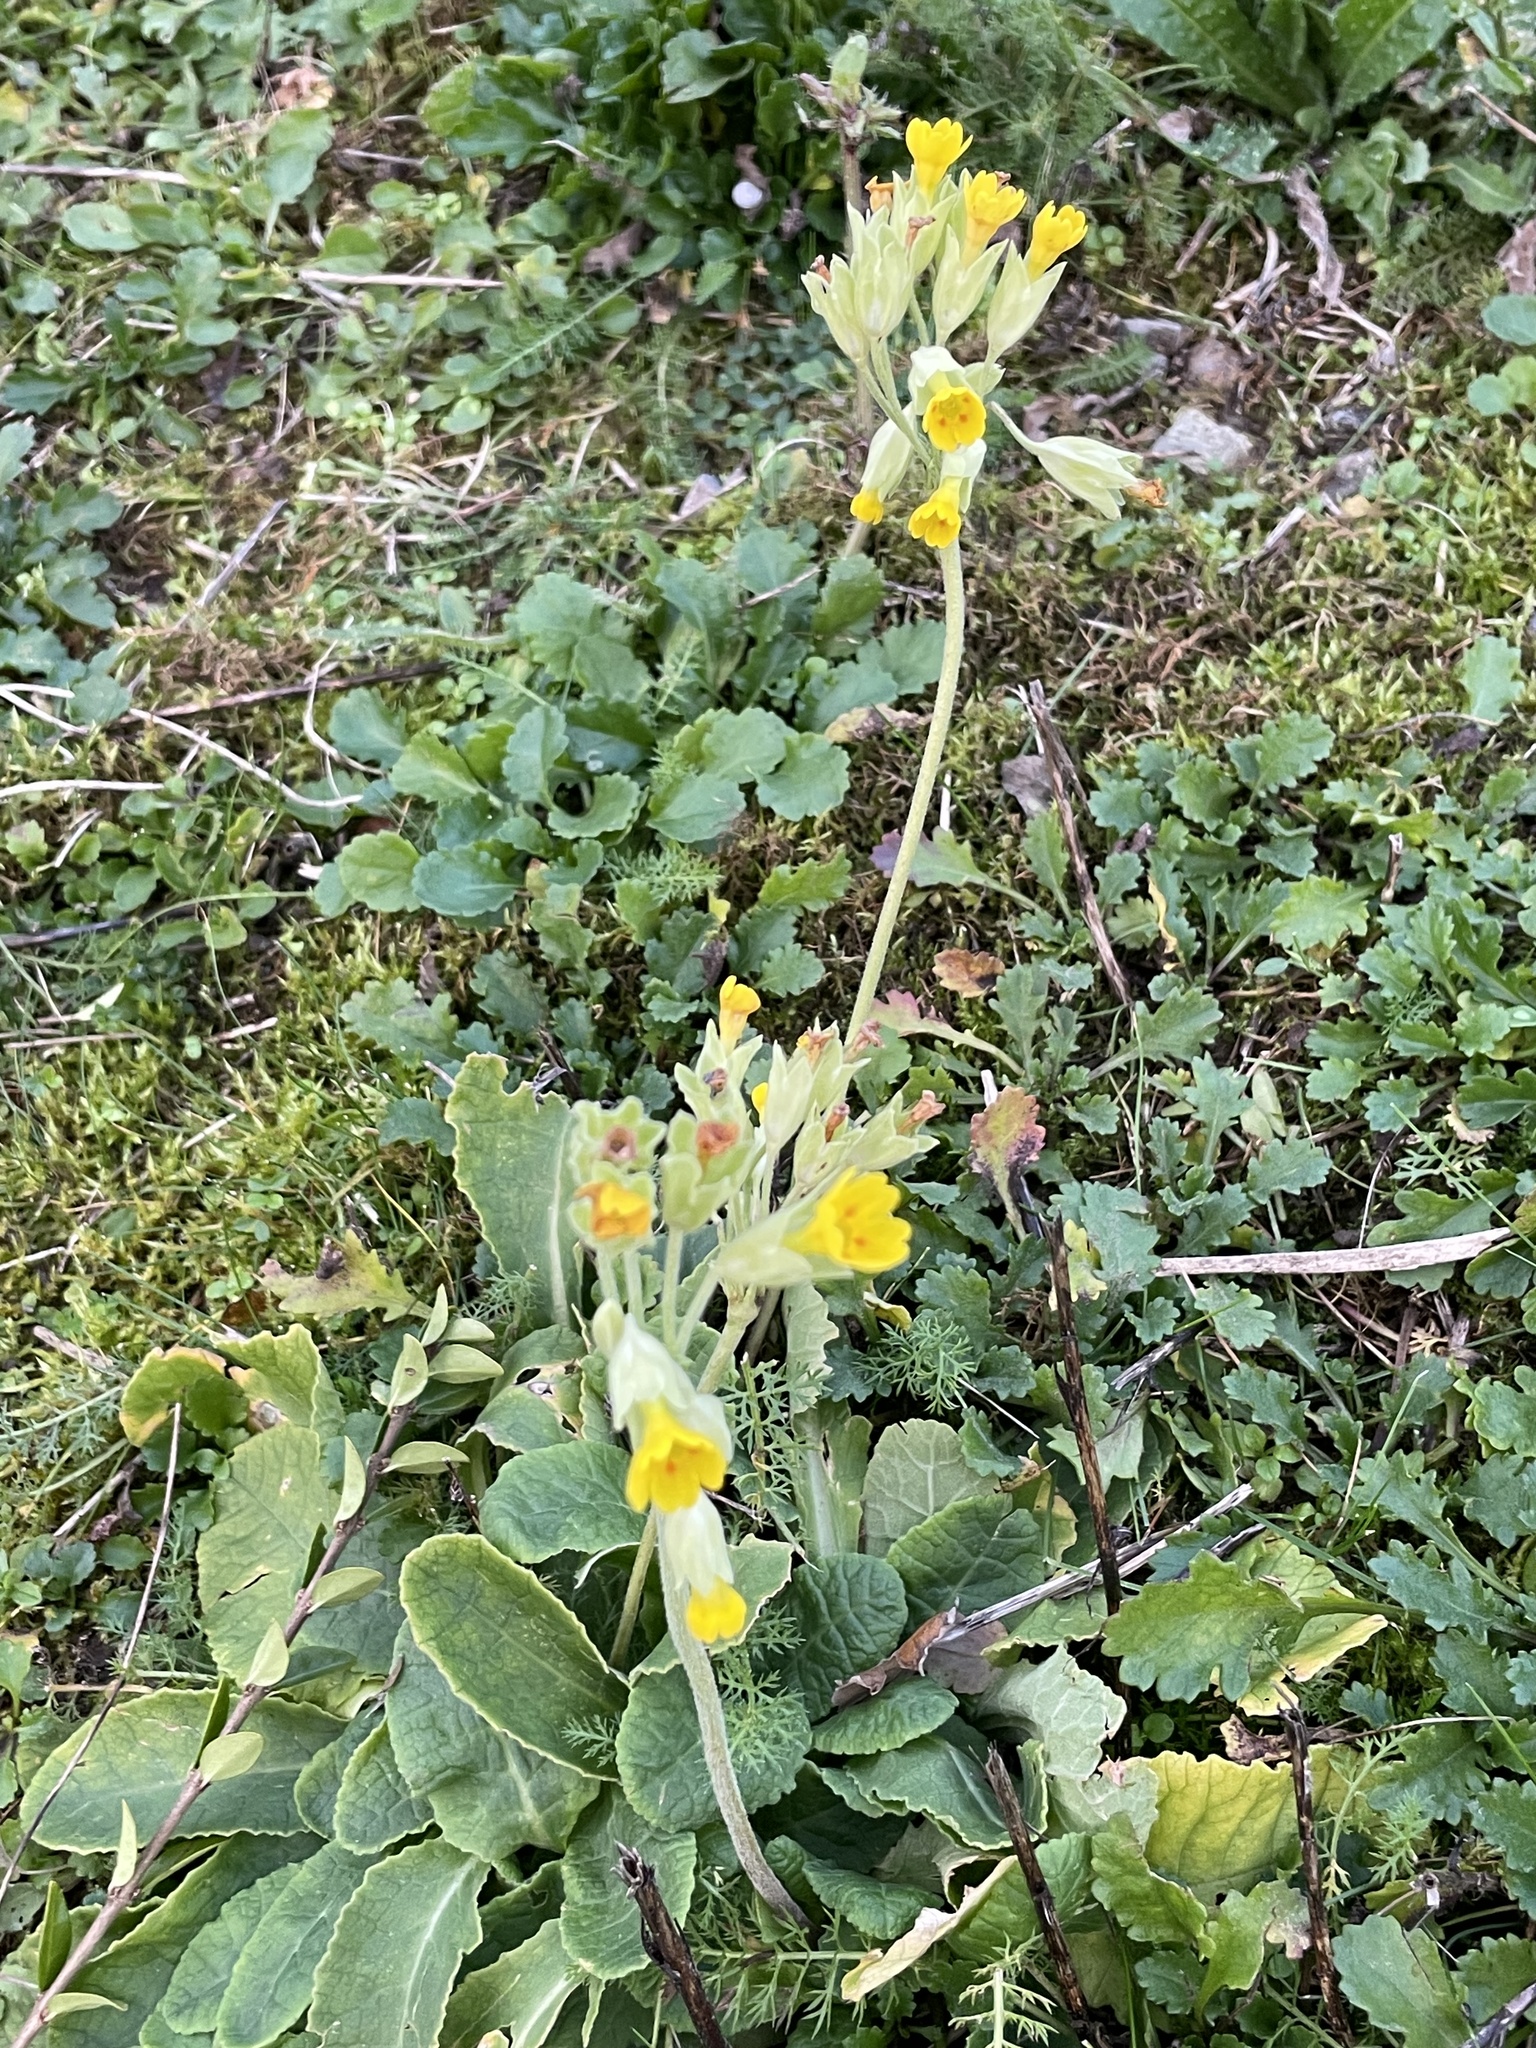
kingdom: Plantae
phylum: Tracheophyta
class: Magnoliopsida
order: Ericales
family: Primulaceae
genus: Primula
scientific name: Primula veris
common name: Cowslip
